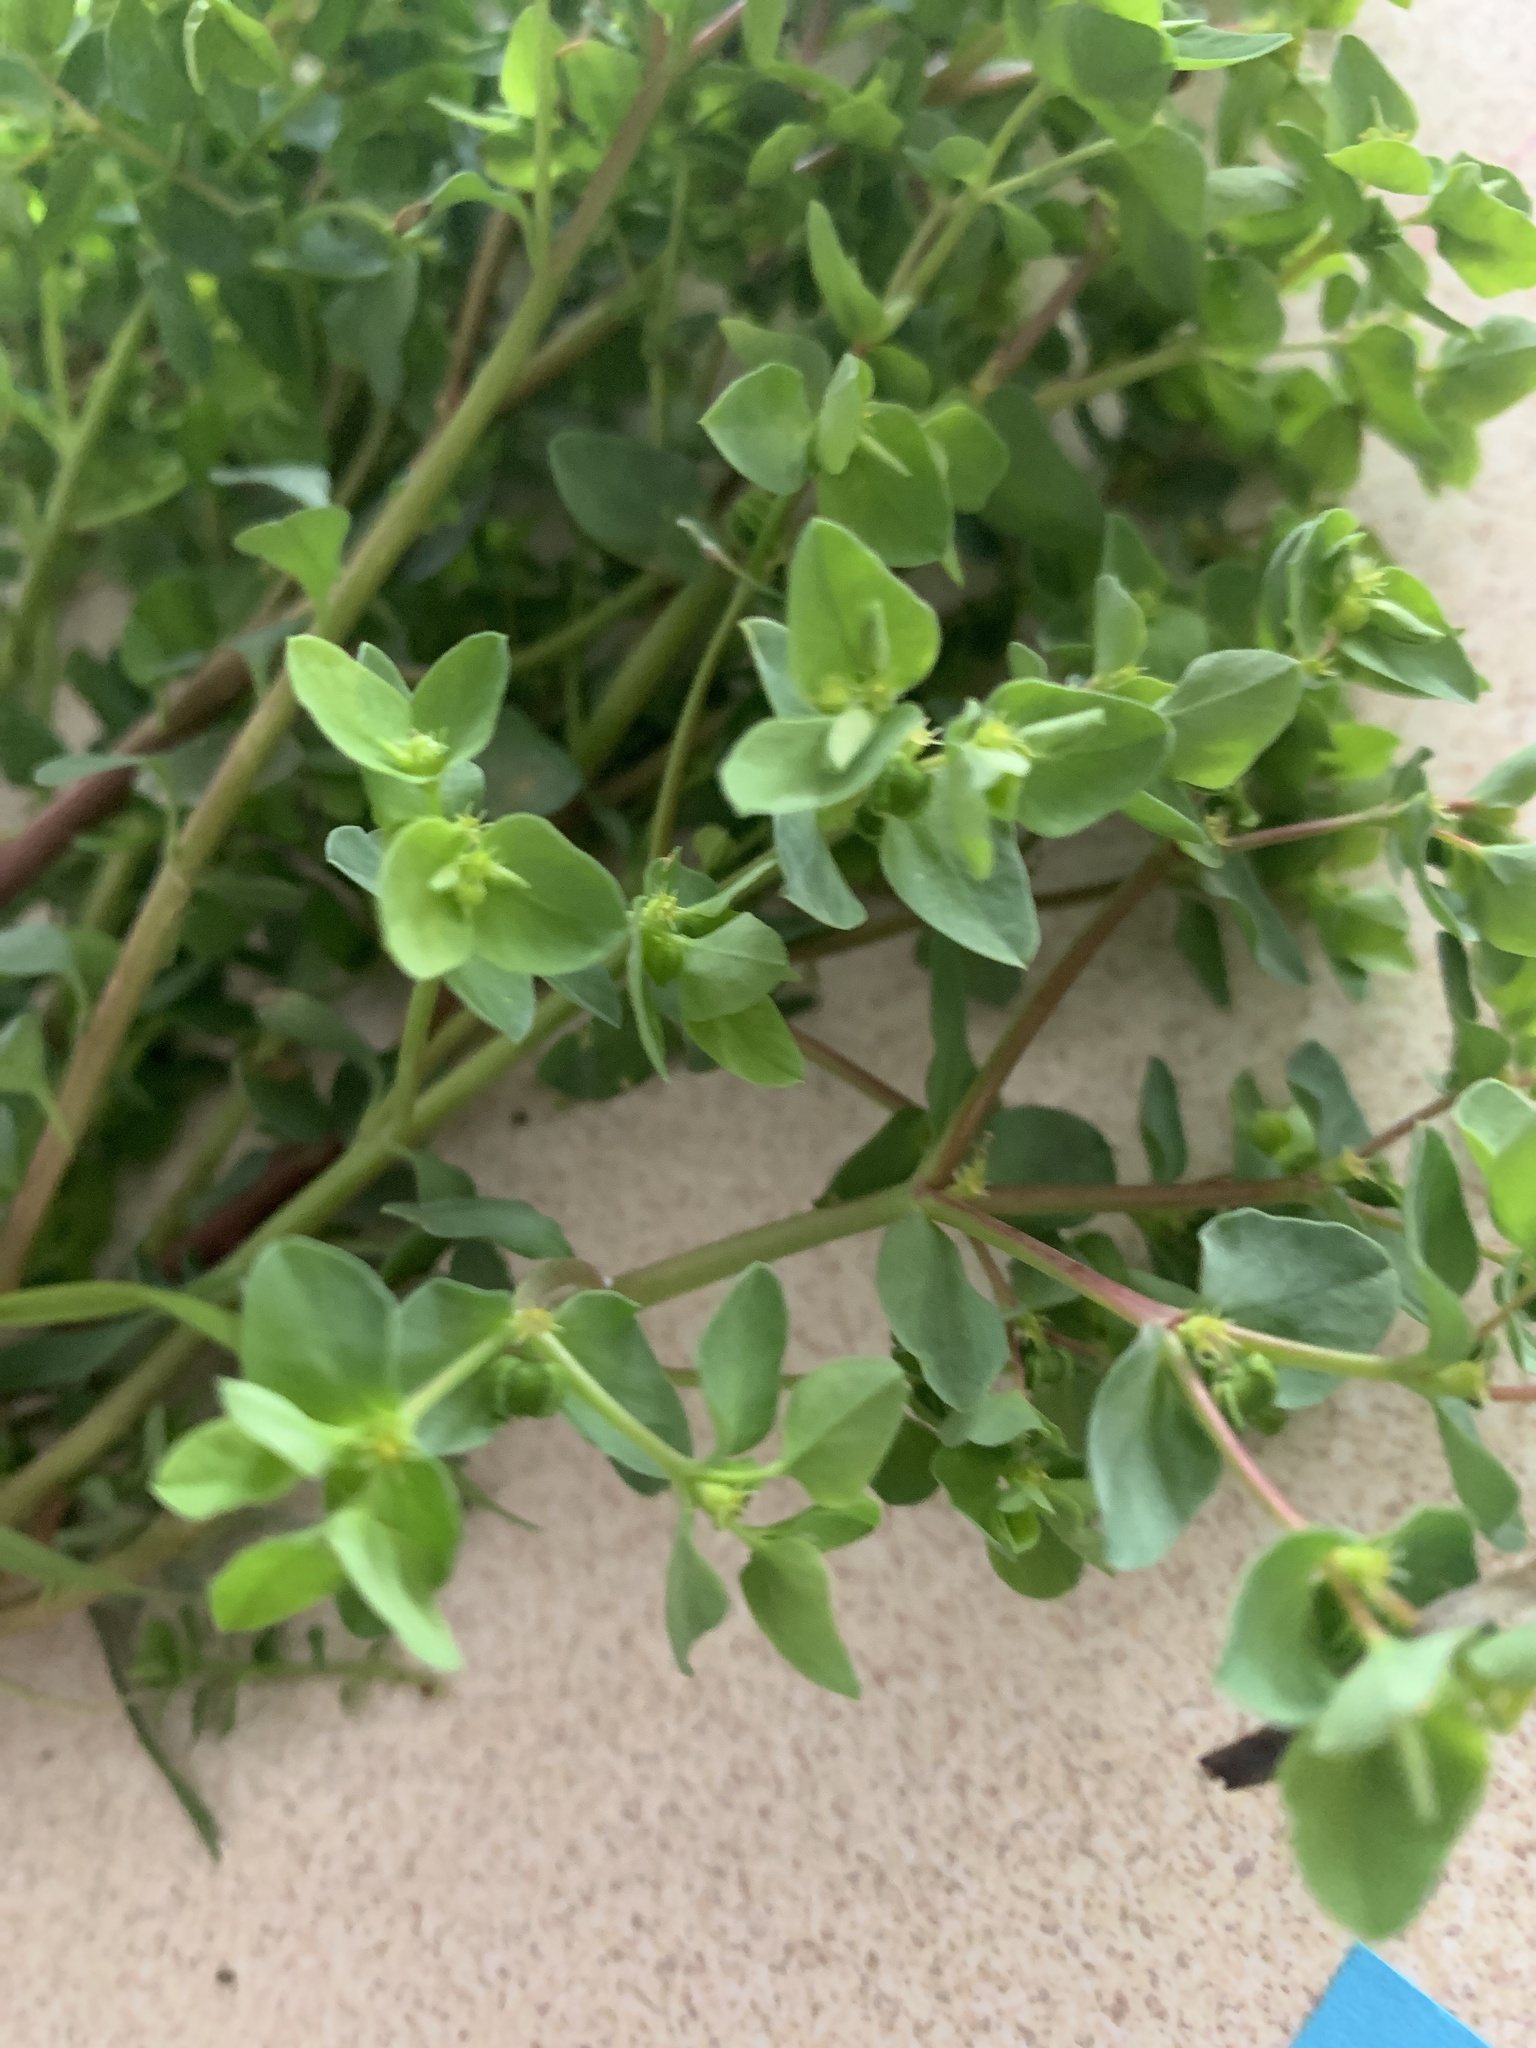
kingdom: Plantae
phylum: Tracheophyta
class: Magnoliopsida
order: Malpighiales
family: Euphorbiaceae
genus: Euphorbia
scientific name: Euphorbia peplus
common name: Petty spurge
